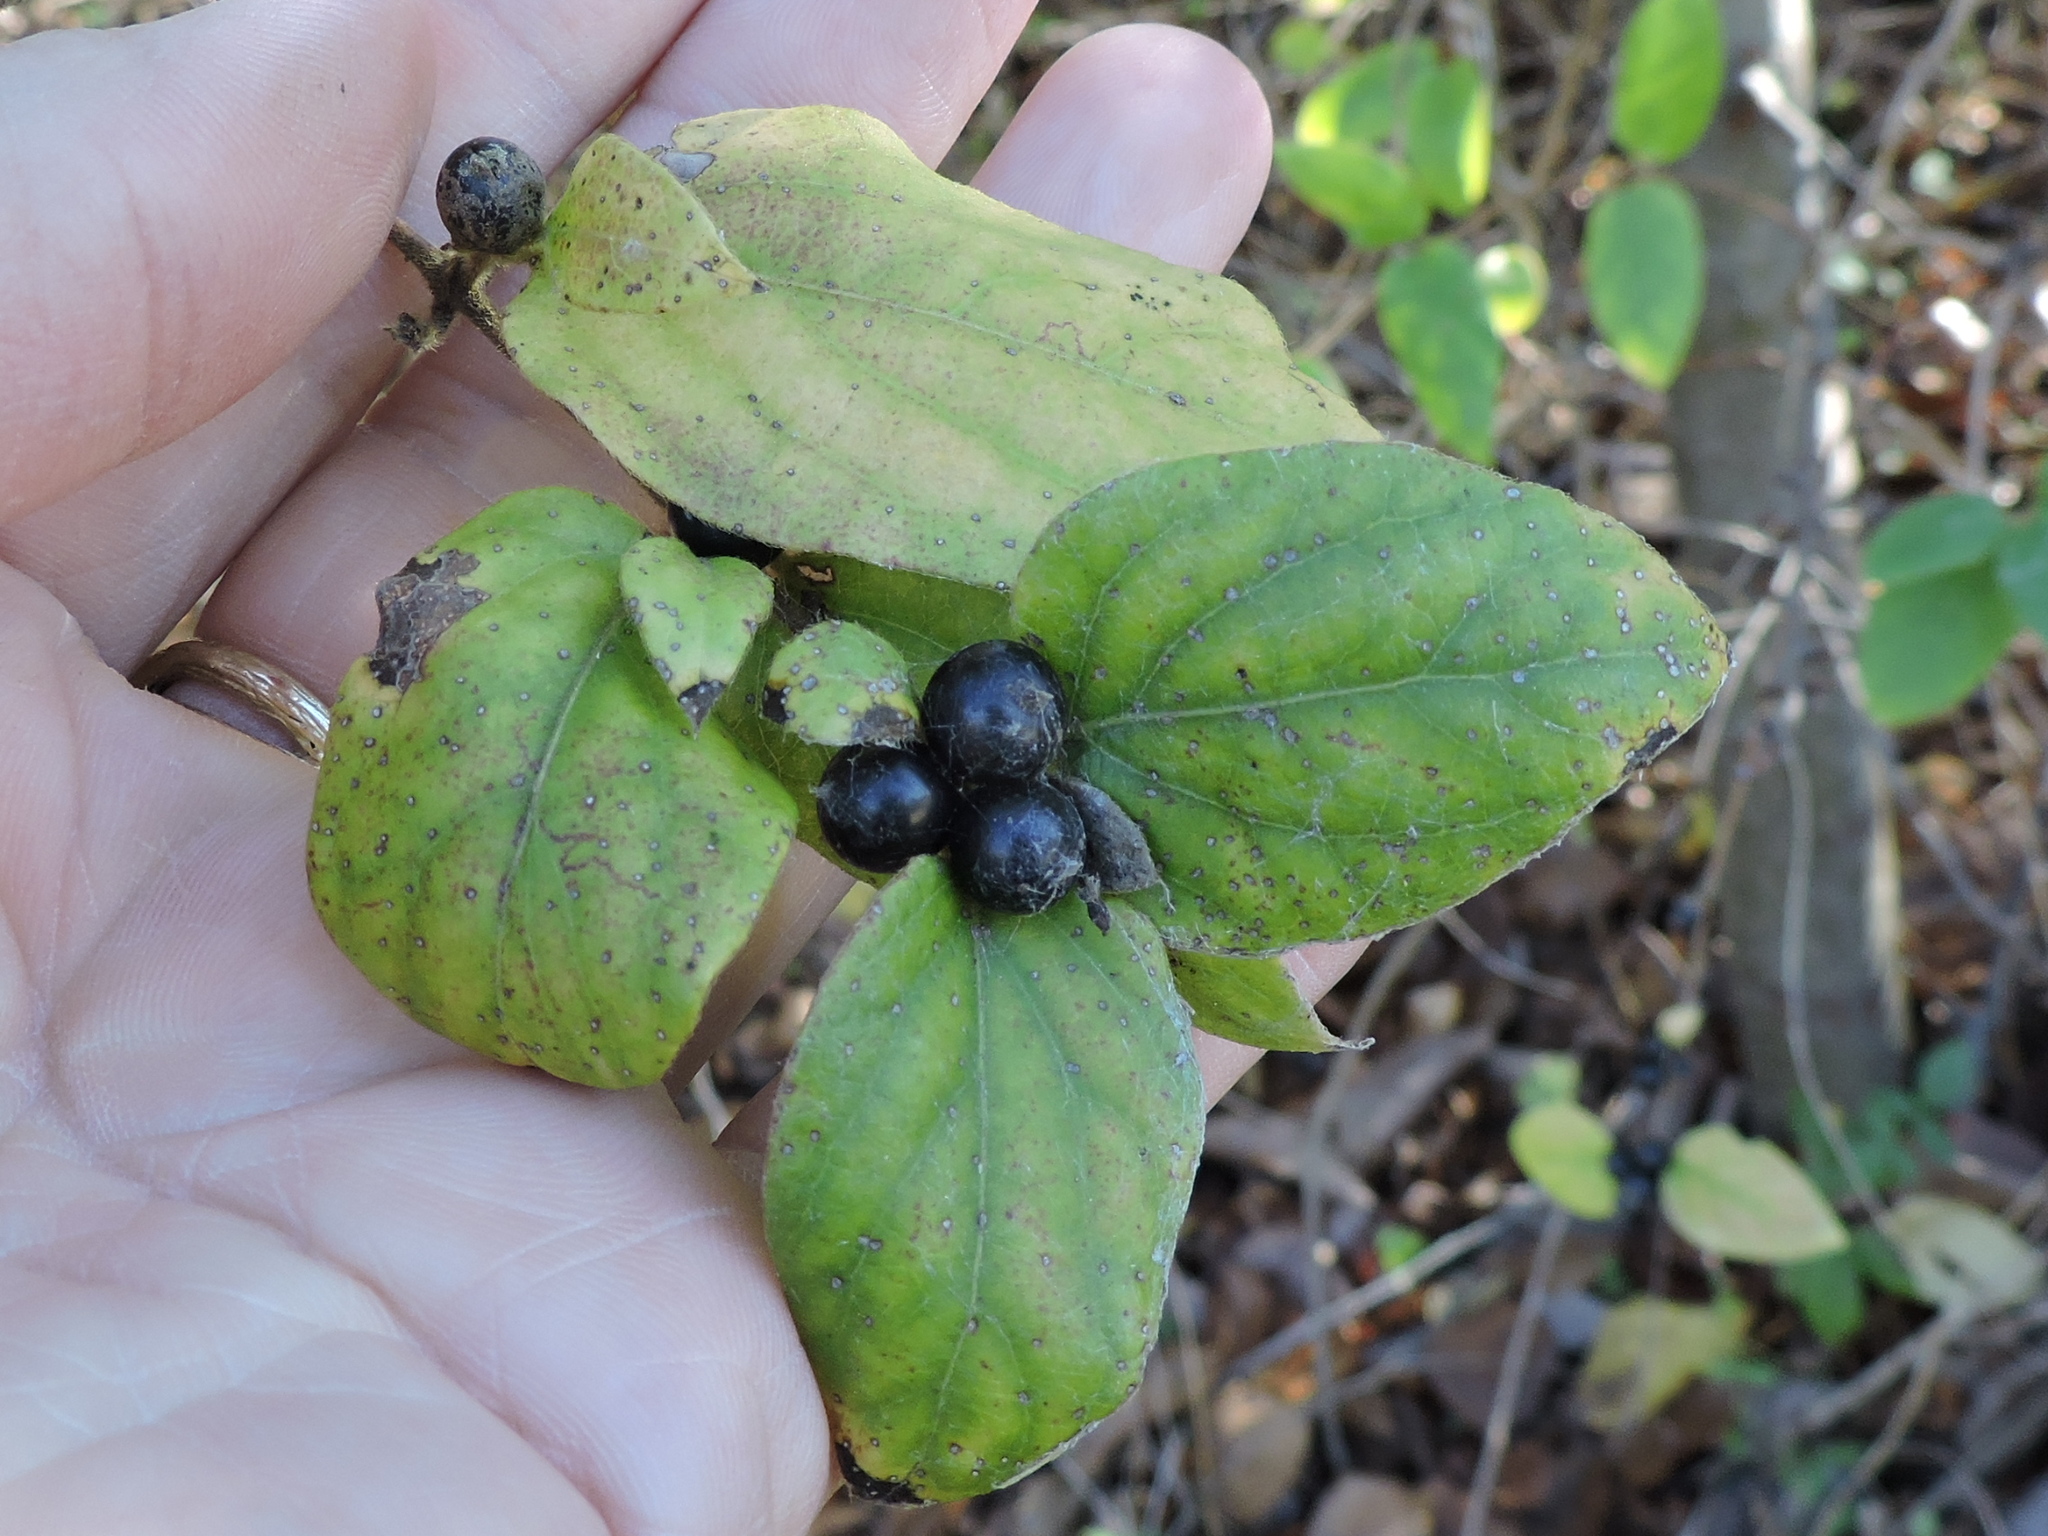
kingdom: Plantae
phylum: Tracheophyta
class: Magnoliopsida
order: Dipsacales
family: Caprifoliaceae
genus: Lonicera
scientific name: Lonicera japonica
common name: Japanese honeysuckle
